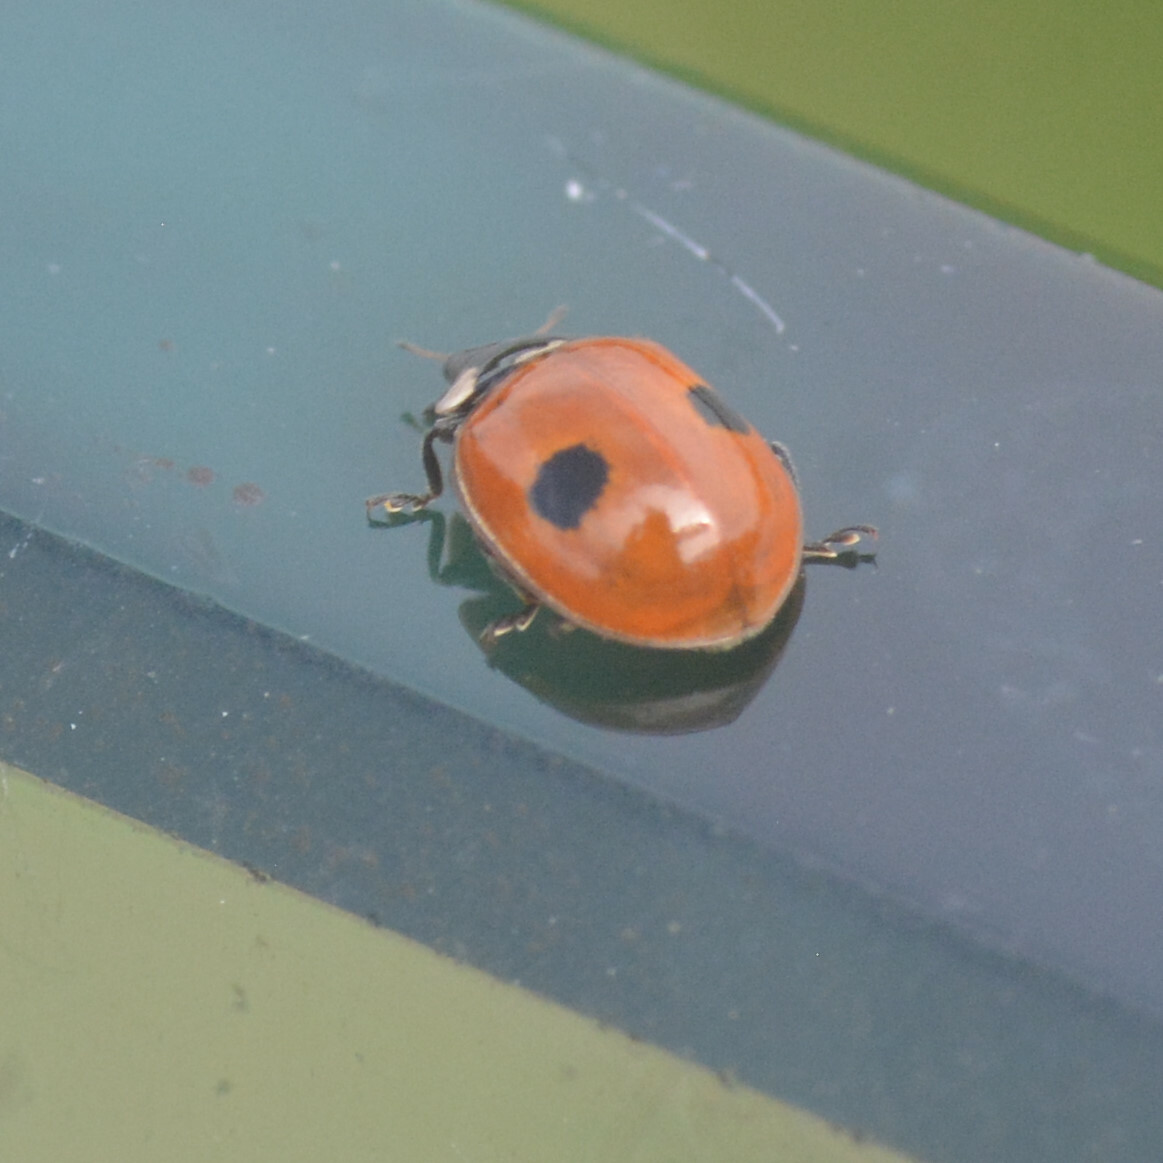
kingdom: Animalia
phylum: Arthropoda
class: Insecta
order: Coleoptera
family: Coccinellidae
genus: Adalia
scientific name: Adalia bipunctata
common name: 2-spot ladybird
